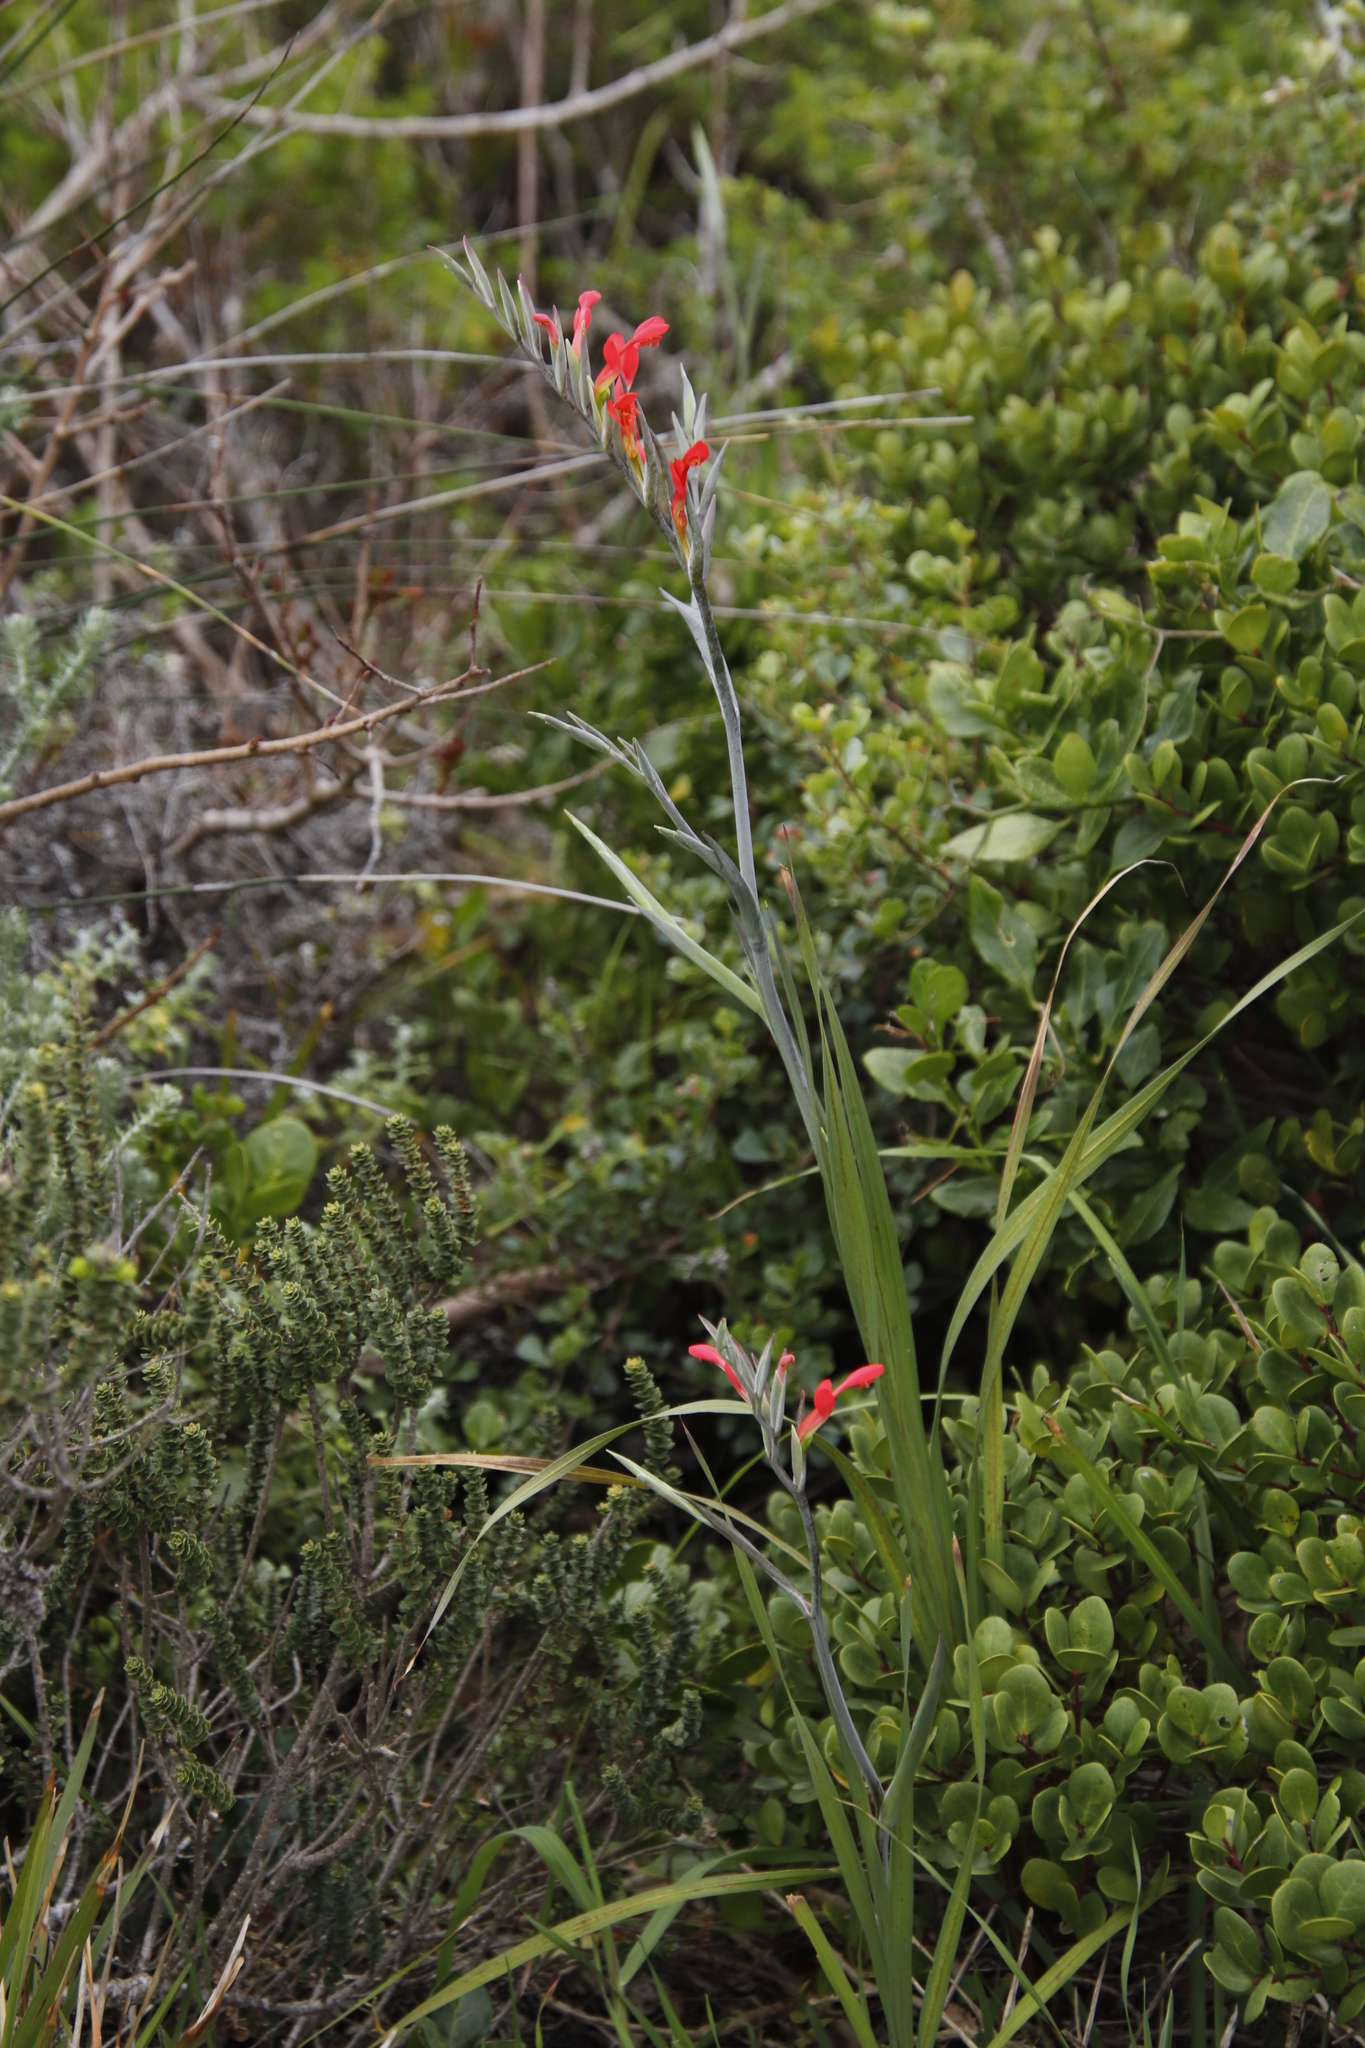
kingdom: Plantae
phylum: Tracheophyta
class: Liliopsida
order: Asparagales
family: Iridaceae
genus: Gladiolus
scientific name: Gladiolus cunonius
